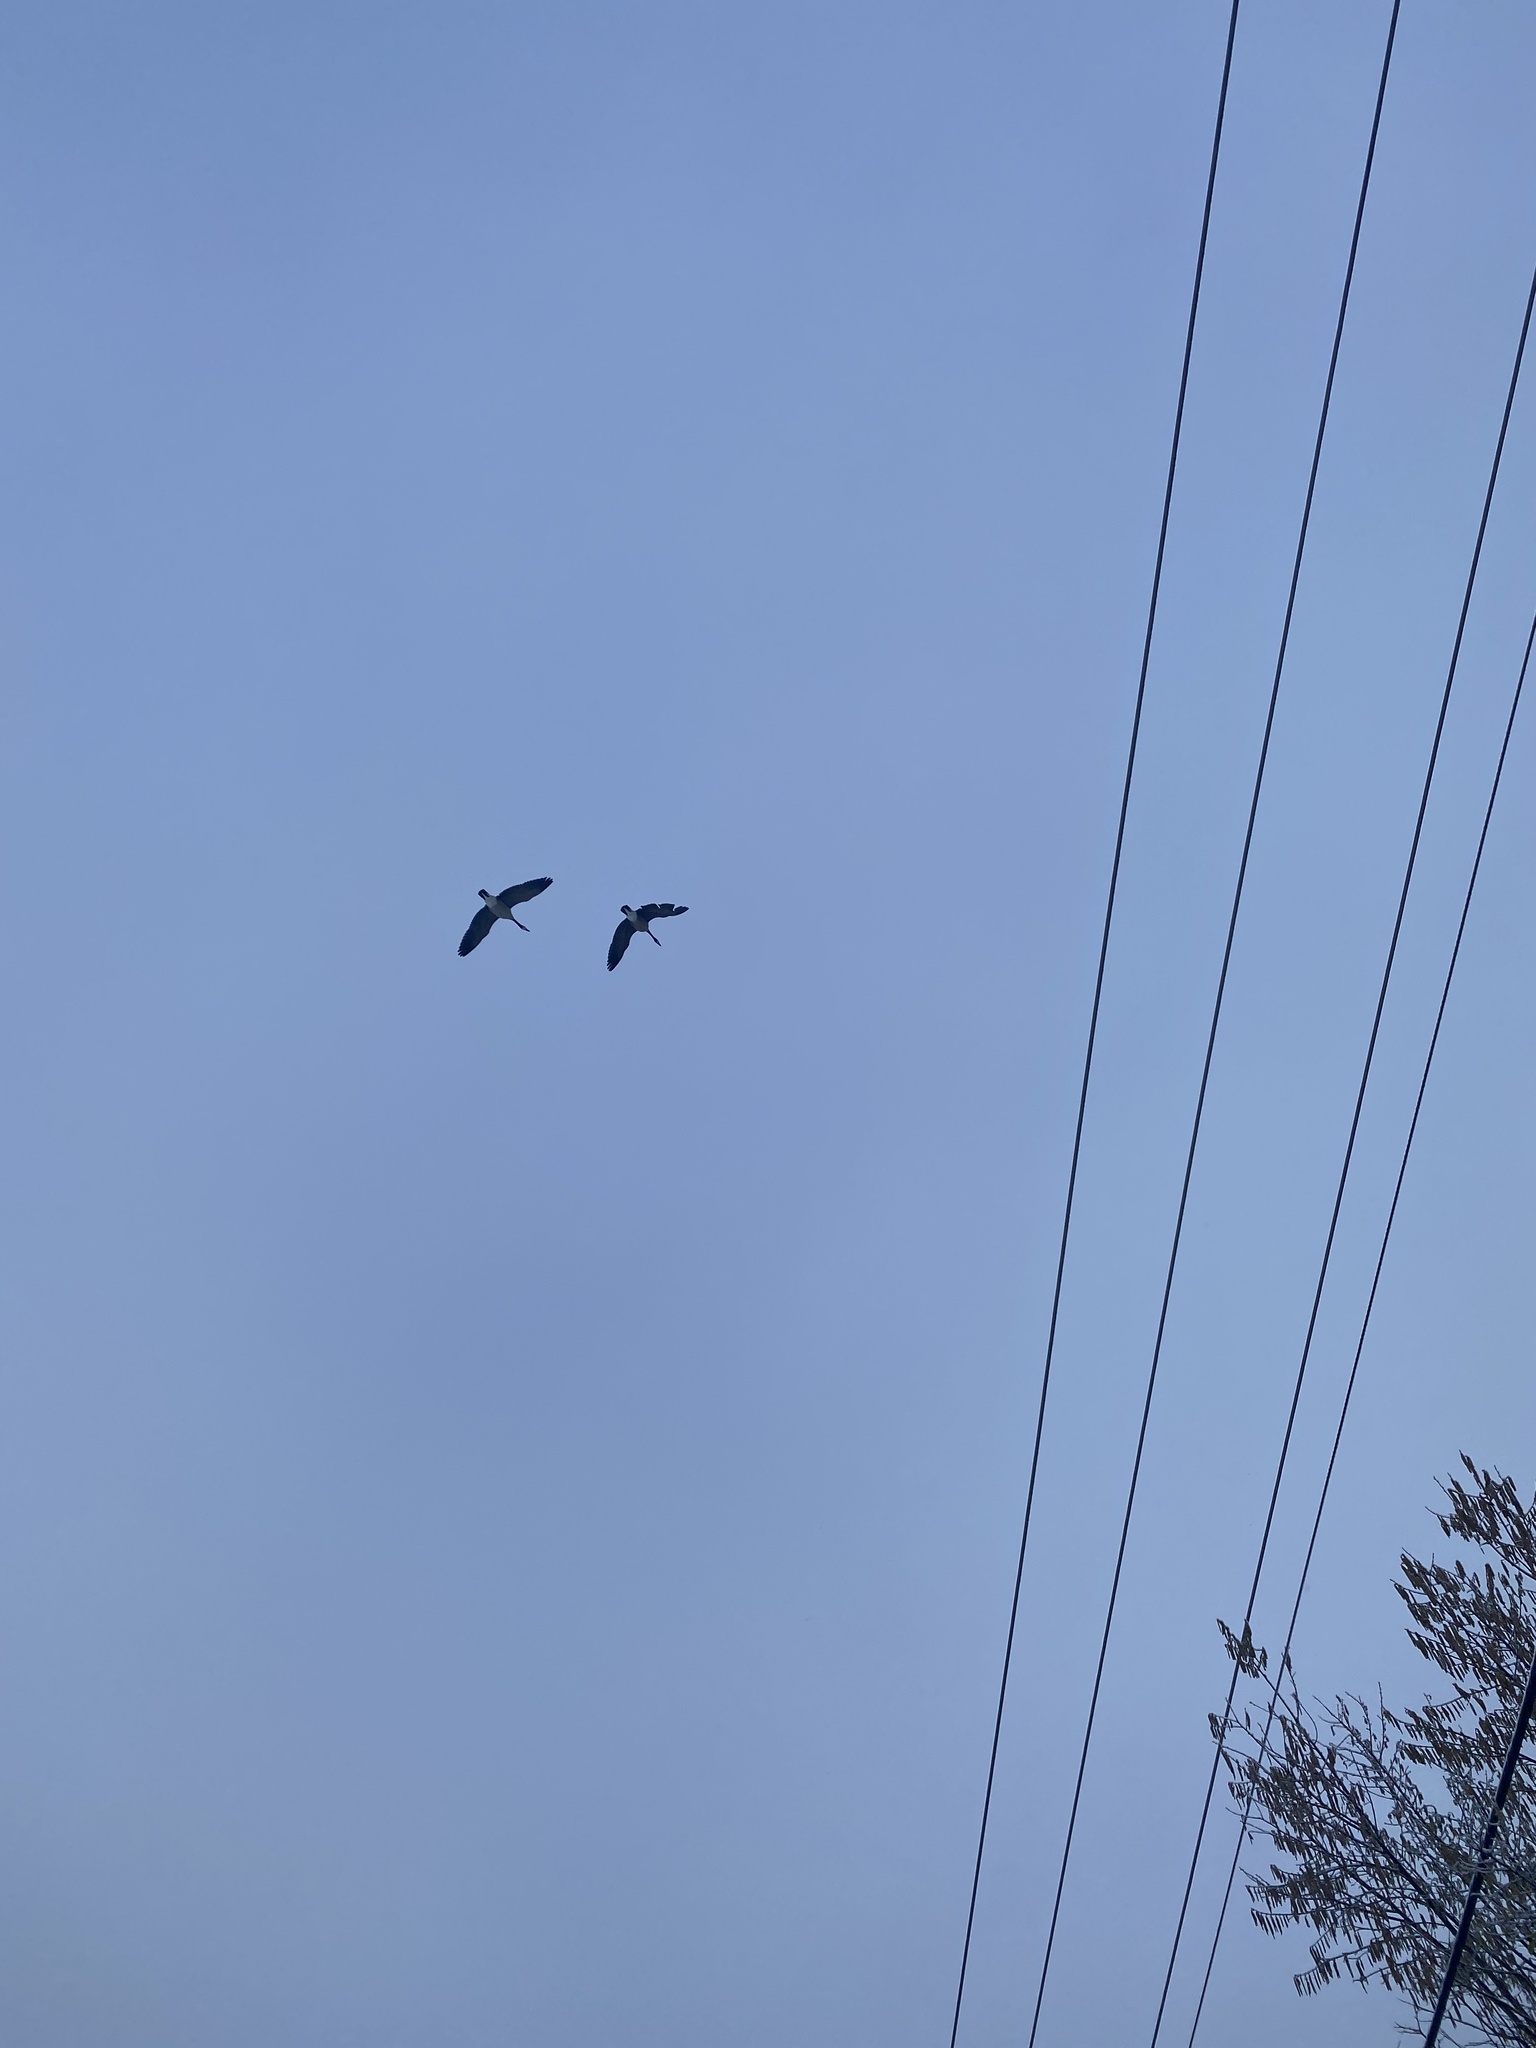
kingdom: Animalia
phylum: Chordata
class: Aves
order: Anseriformes
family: Anatidae
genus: Branta
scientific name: Branta canadensis
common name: Canada goose
